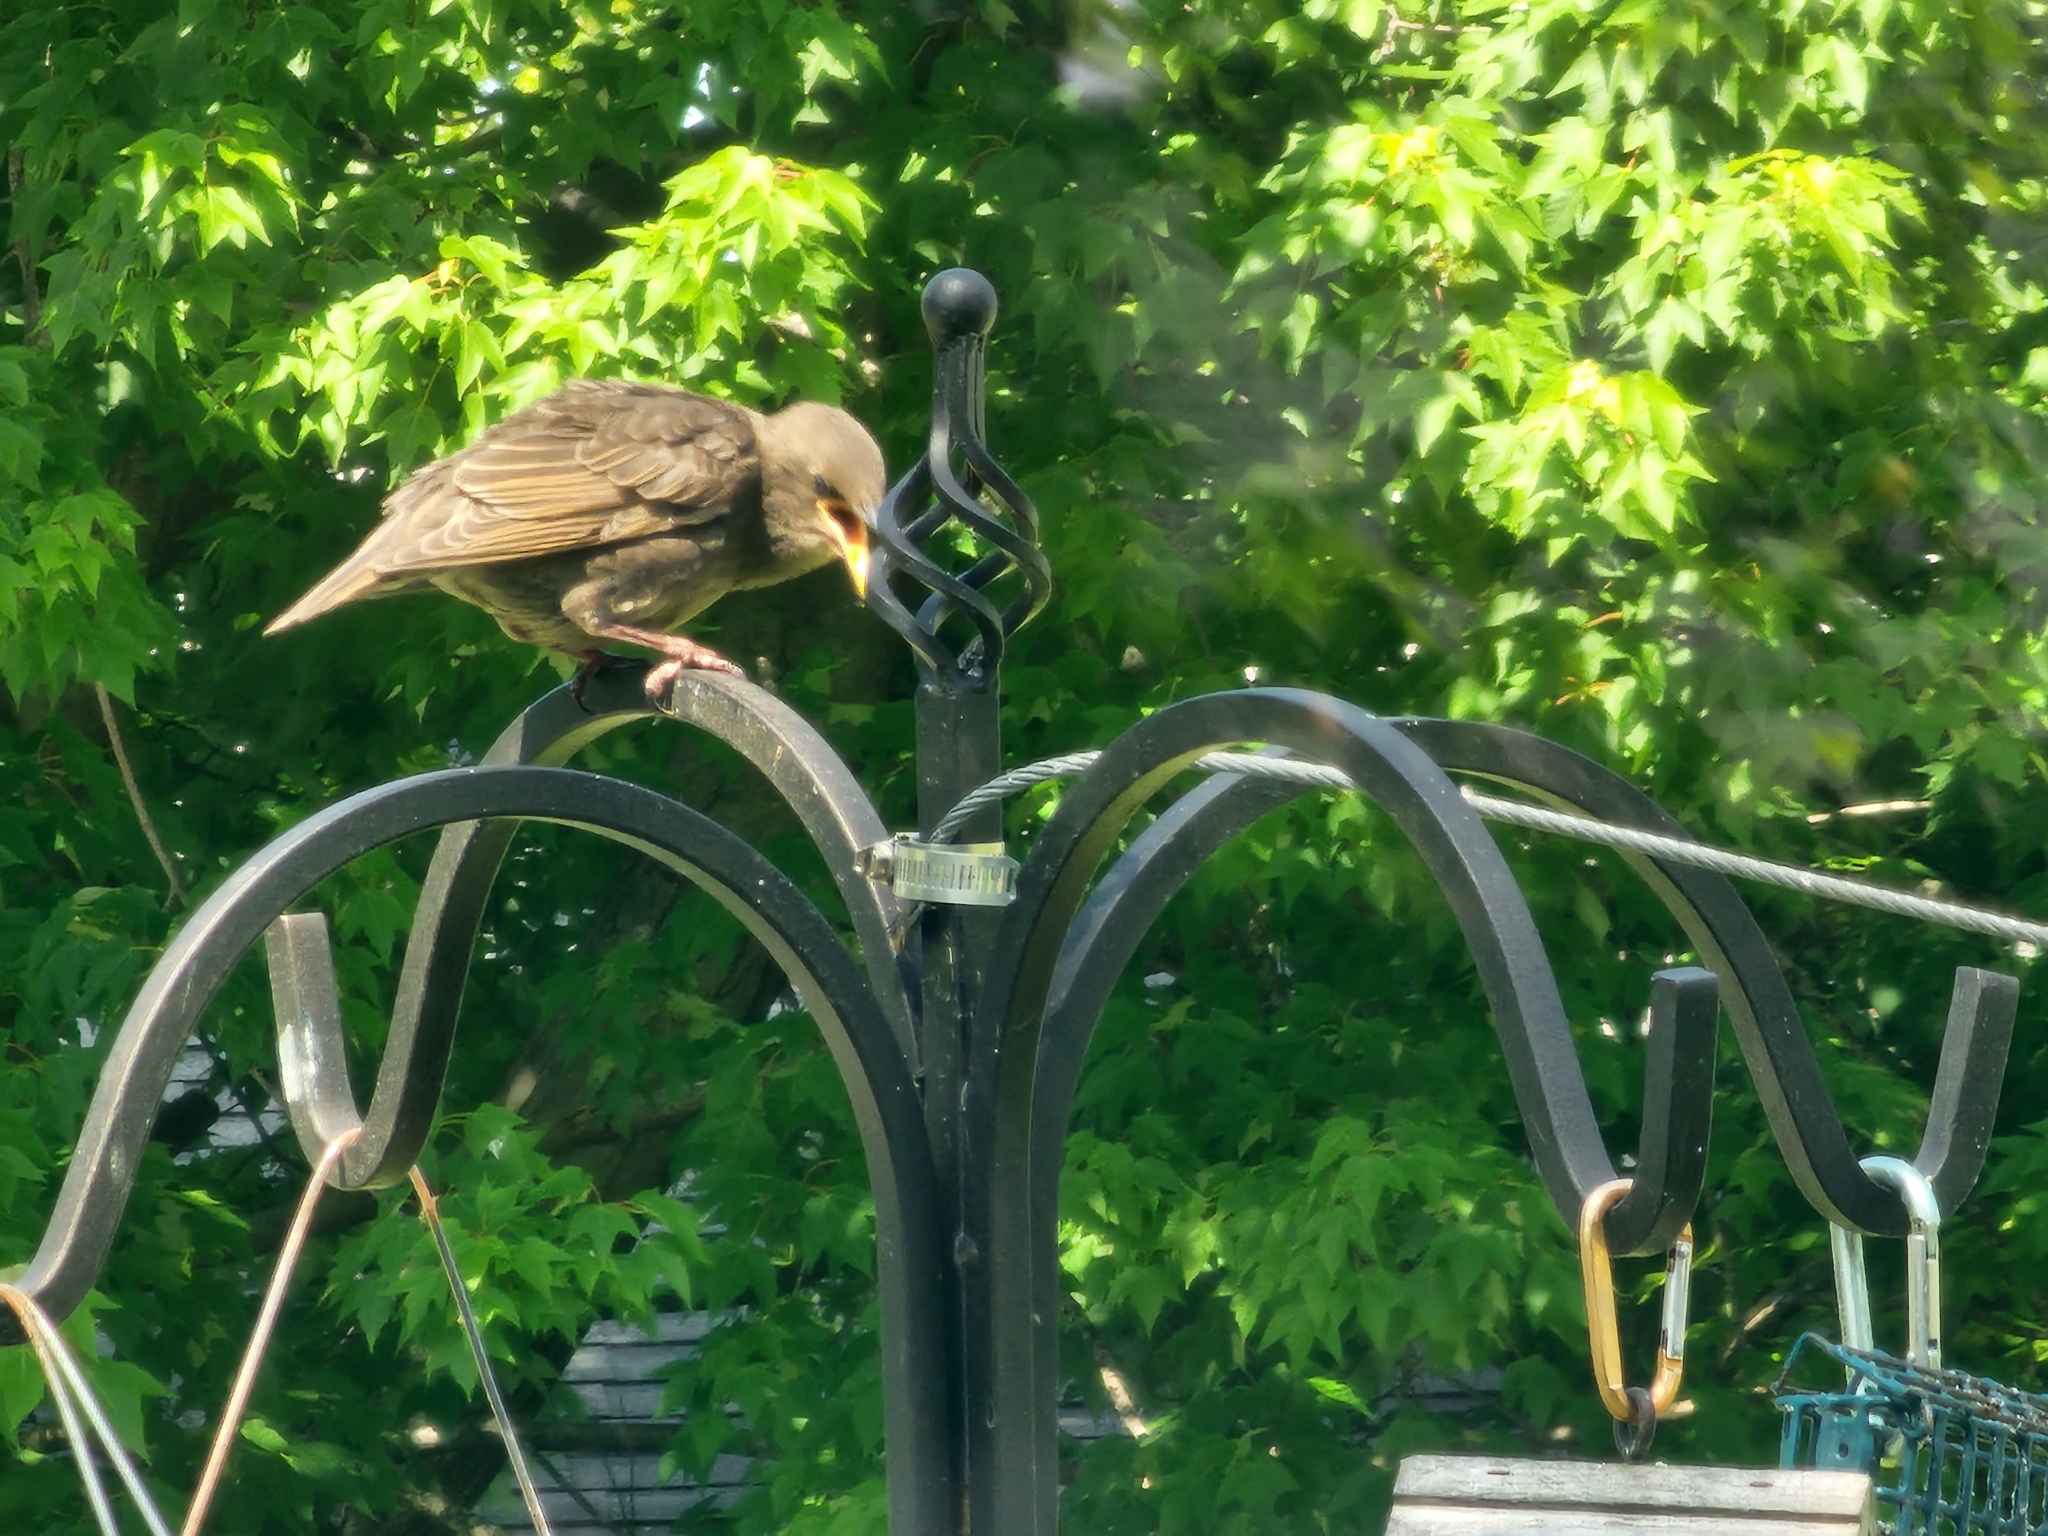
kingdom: Animalia
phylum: Chordata
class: Aves
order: Passeriformes
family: Sturnidae
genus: Sturnus
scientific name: Sturnus vulgaris
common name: Common starling
